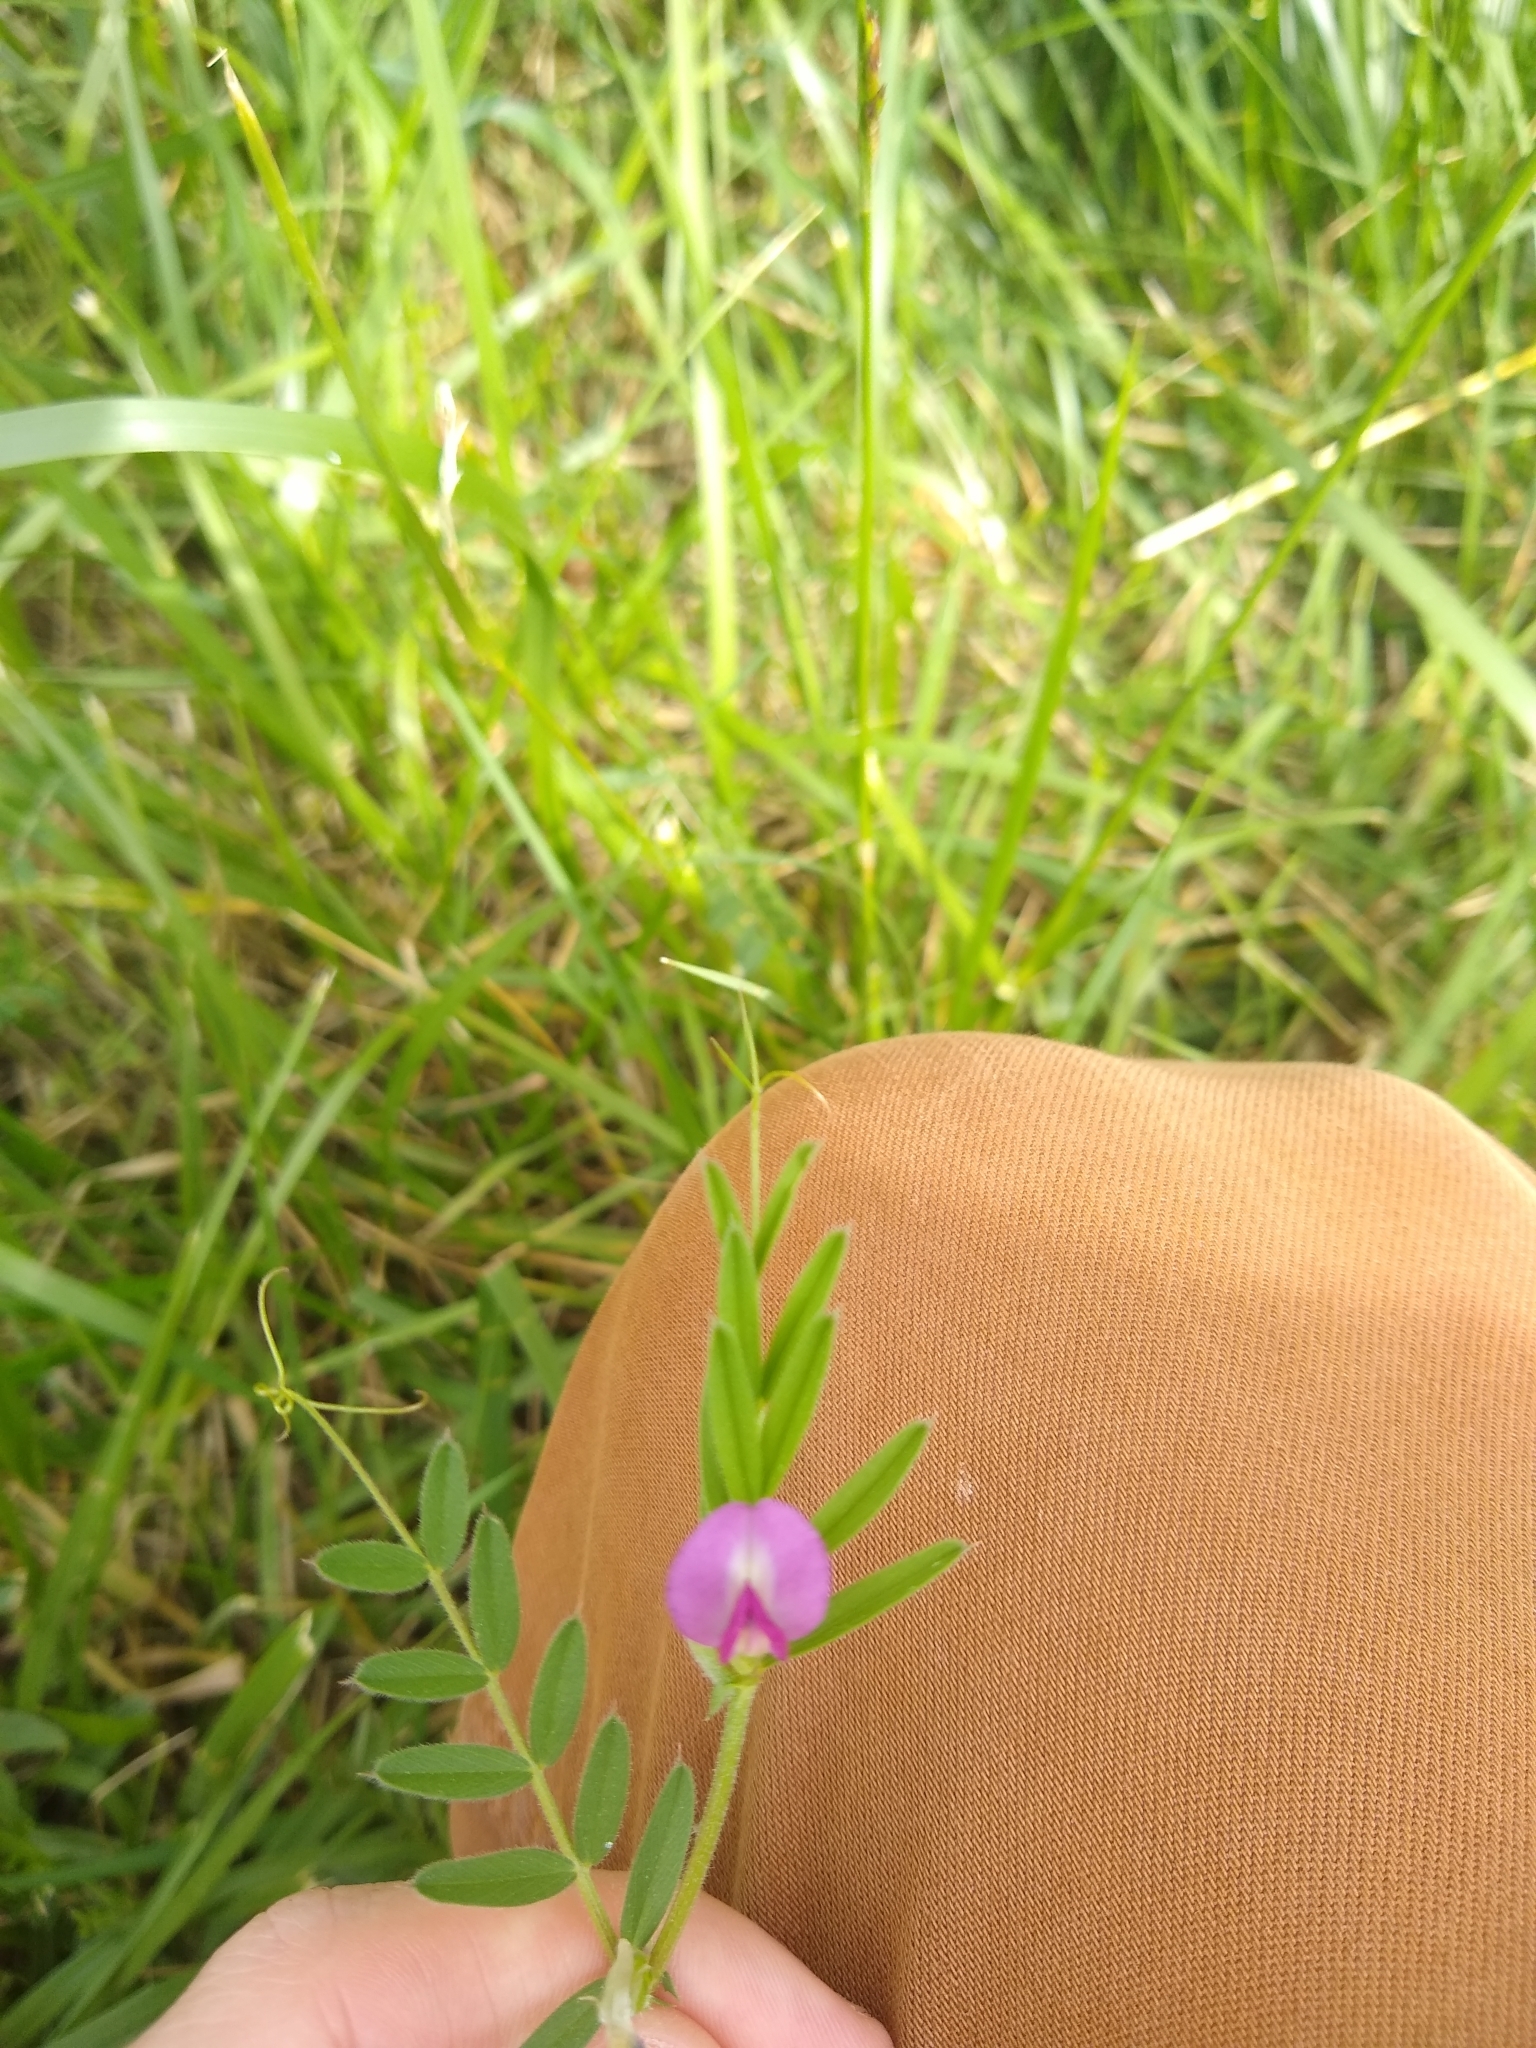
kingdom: Plantae
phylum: Tracheophyta
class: Magnoliopsida
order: Fabales
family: Fabaceae
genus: Vicia
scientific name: Vicia sativa
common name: Garden vetch
